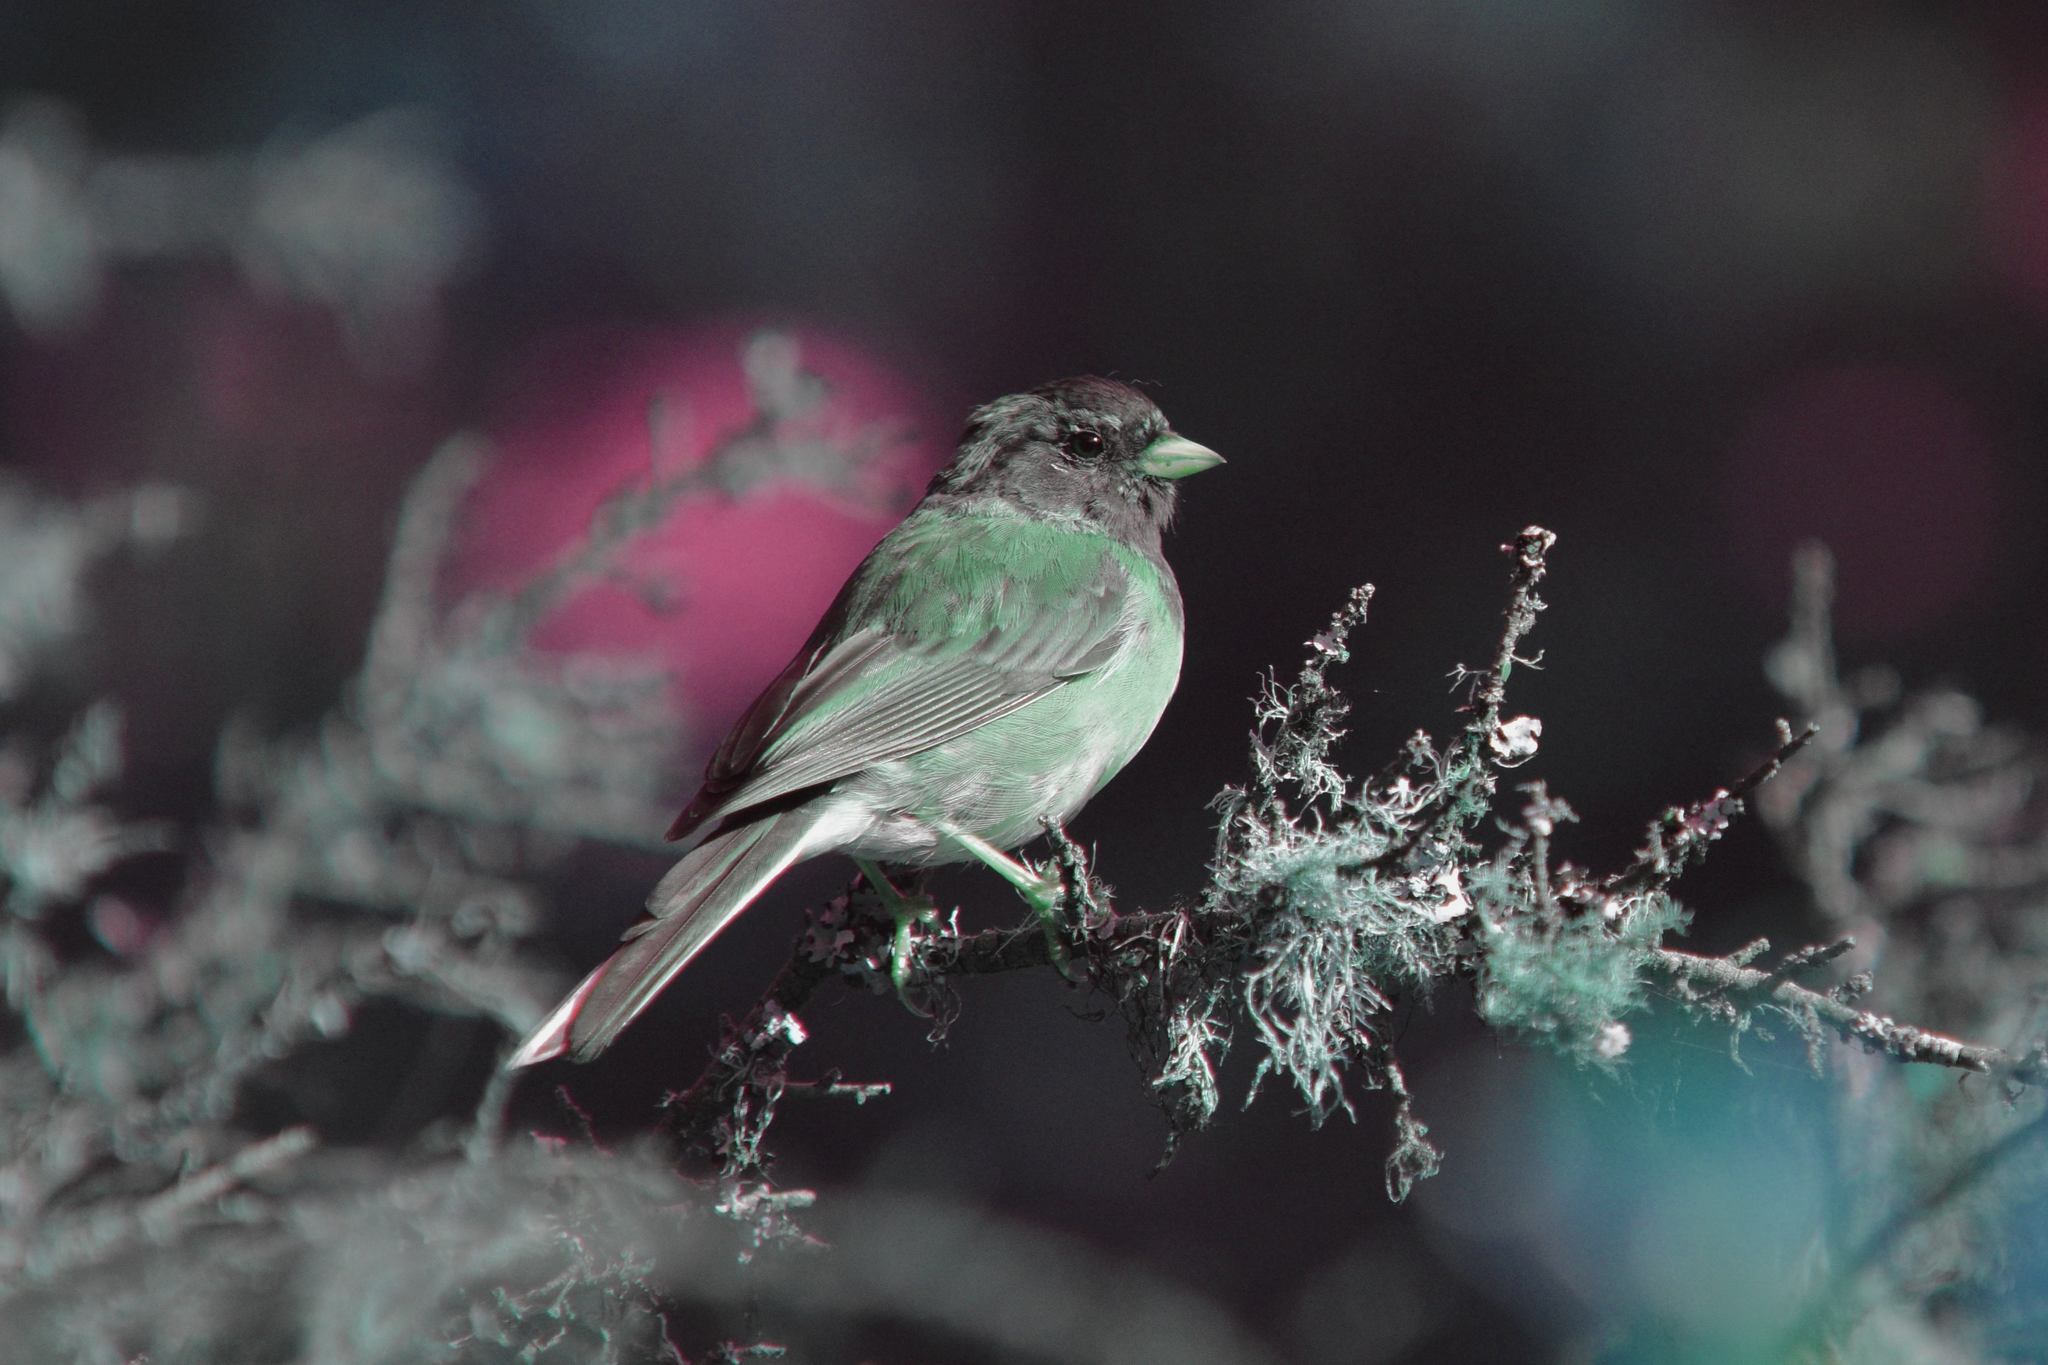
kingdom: Animalia
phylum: Chordata
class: Aves
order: Passeriformes
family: Passerellidae
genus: Junco
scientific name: Junco hyemalis
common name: Dark-eyed junco
